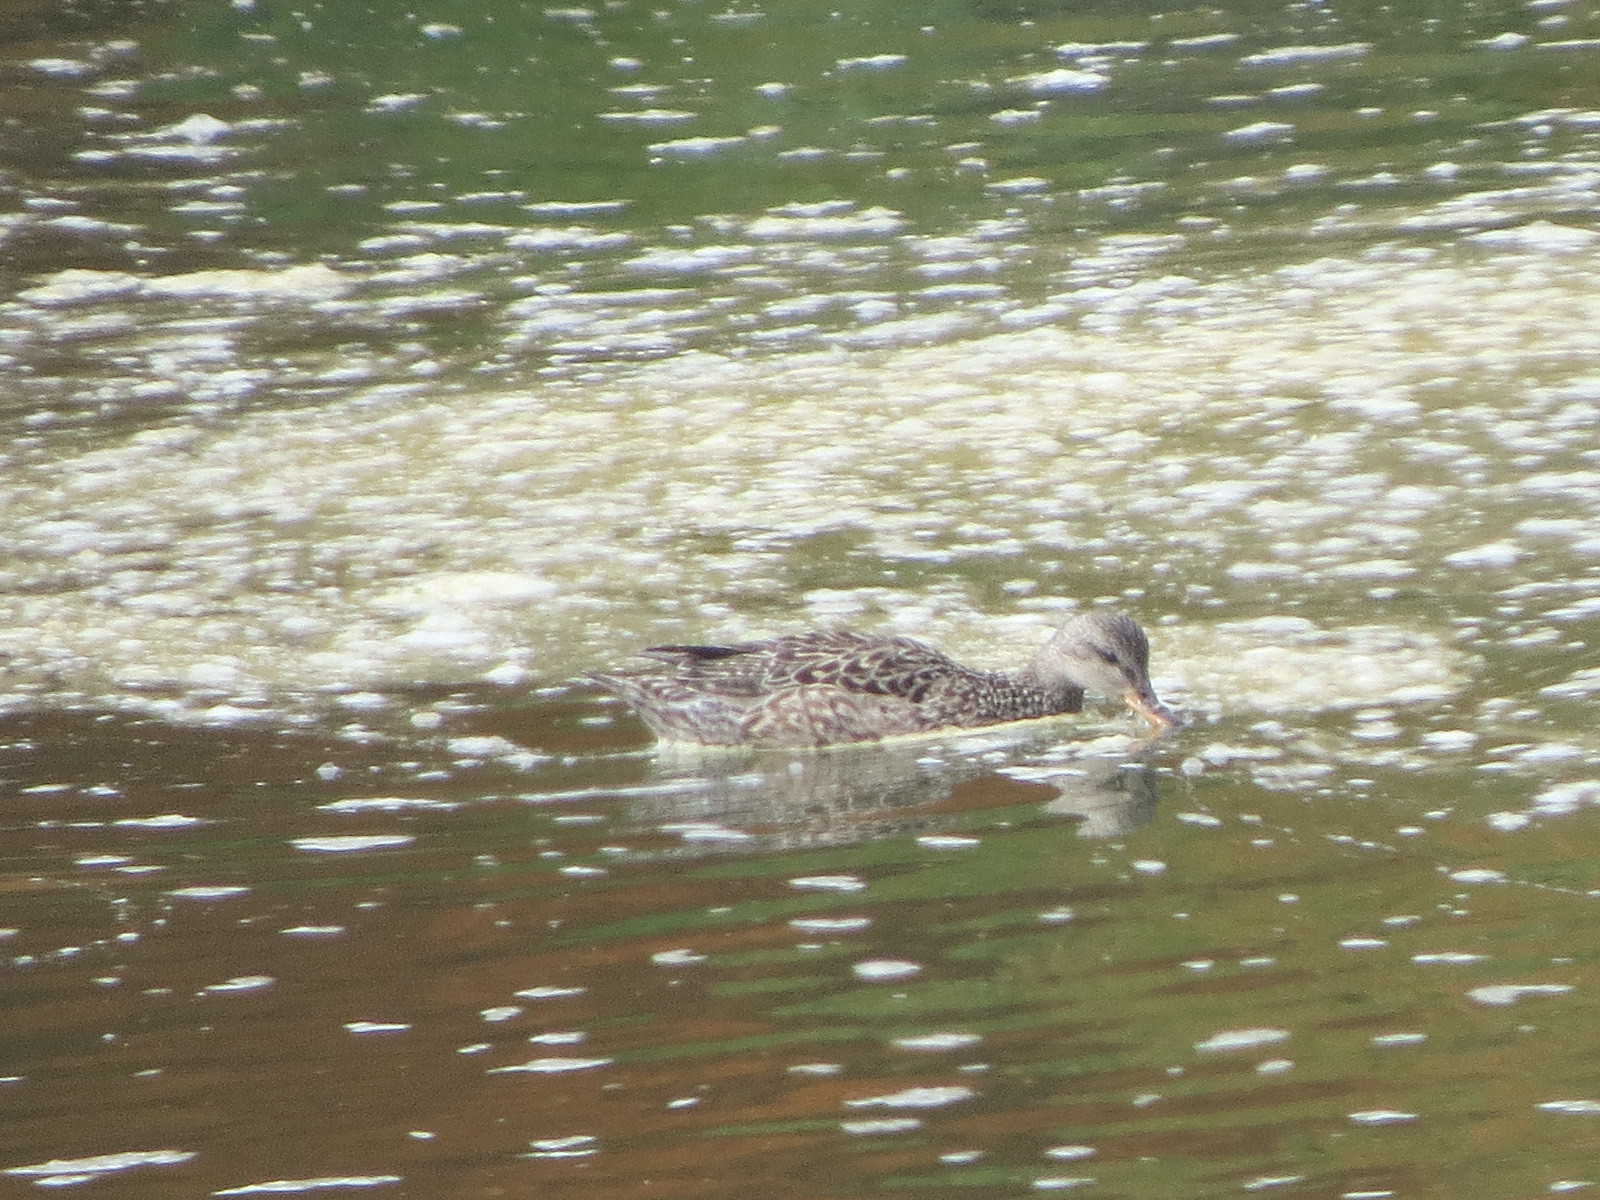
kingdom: Animalia
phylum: Chordata
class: Aves
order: Anseriformes
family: Anatidae
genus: Mareca
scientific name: Mareca strepera
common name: Gadwall
